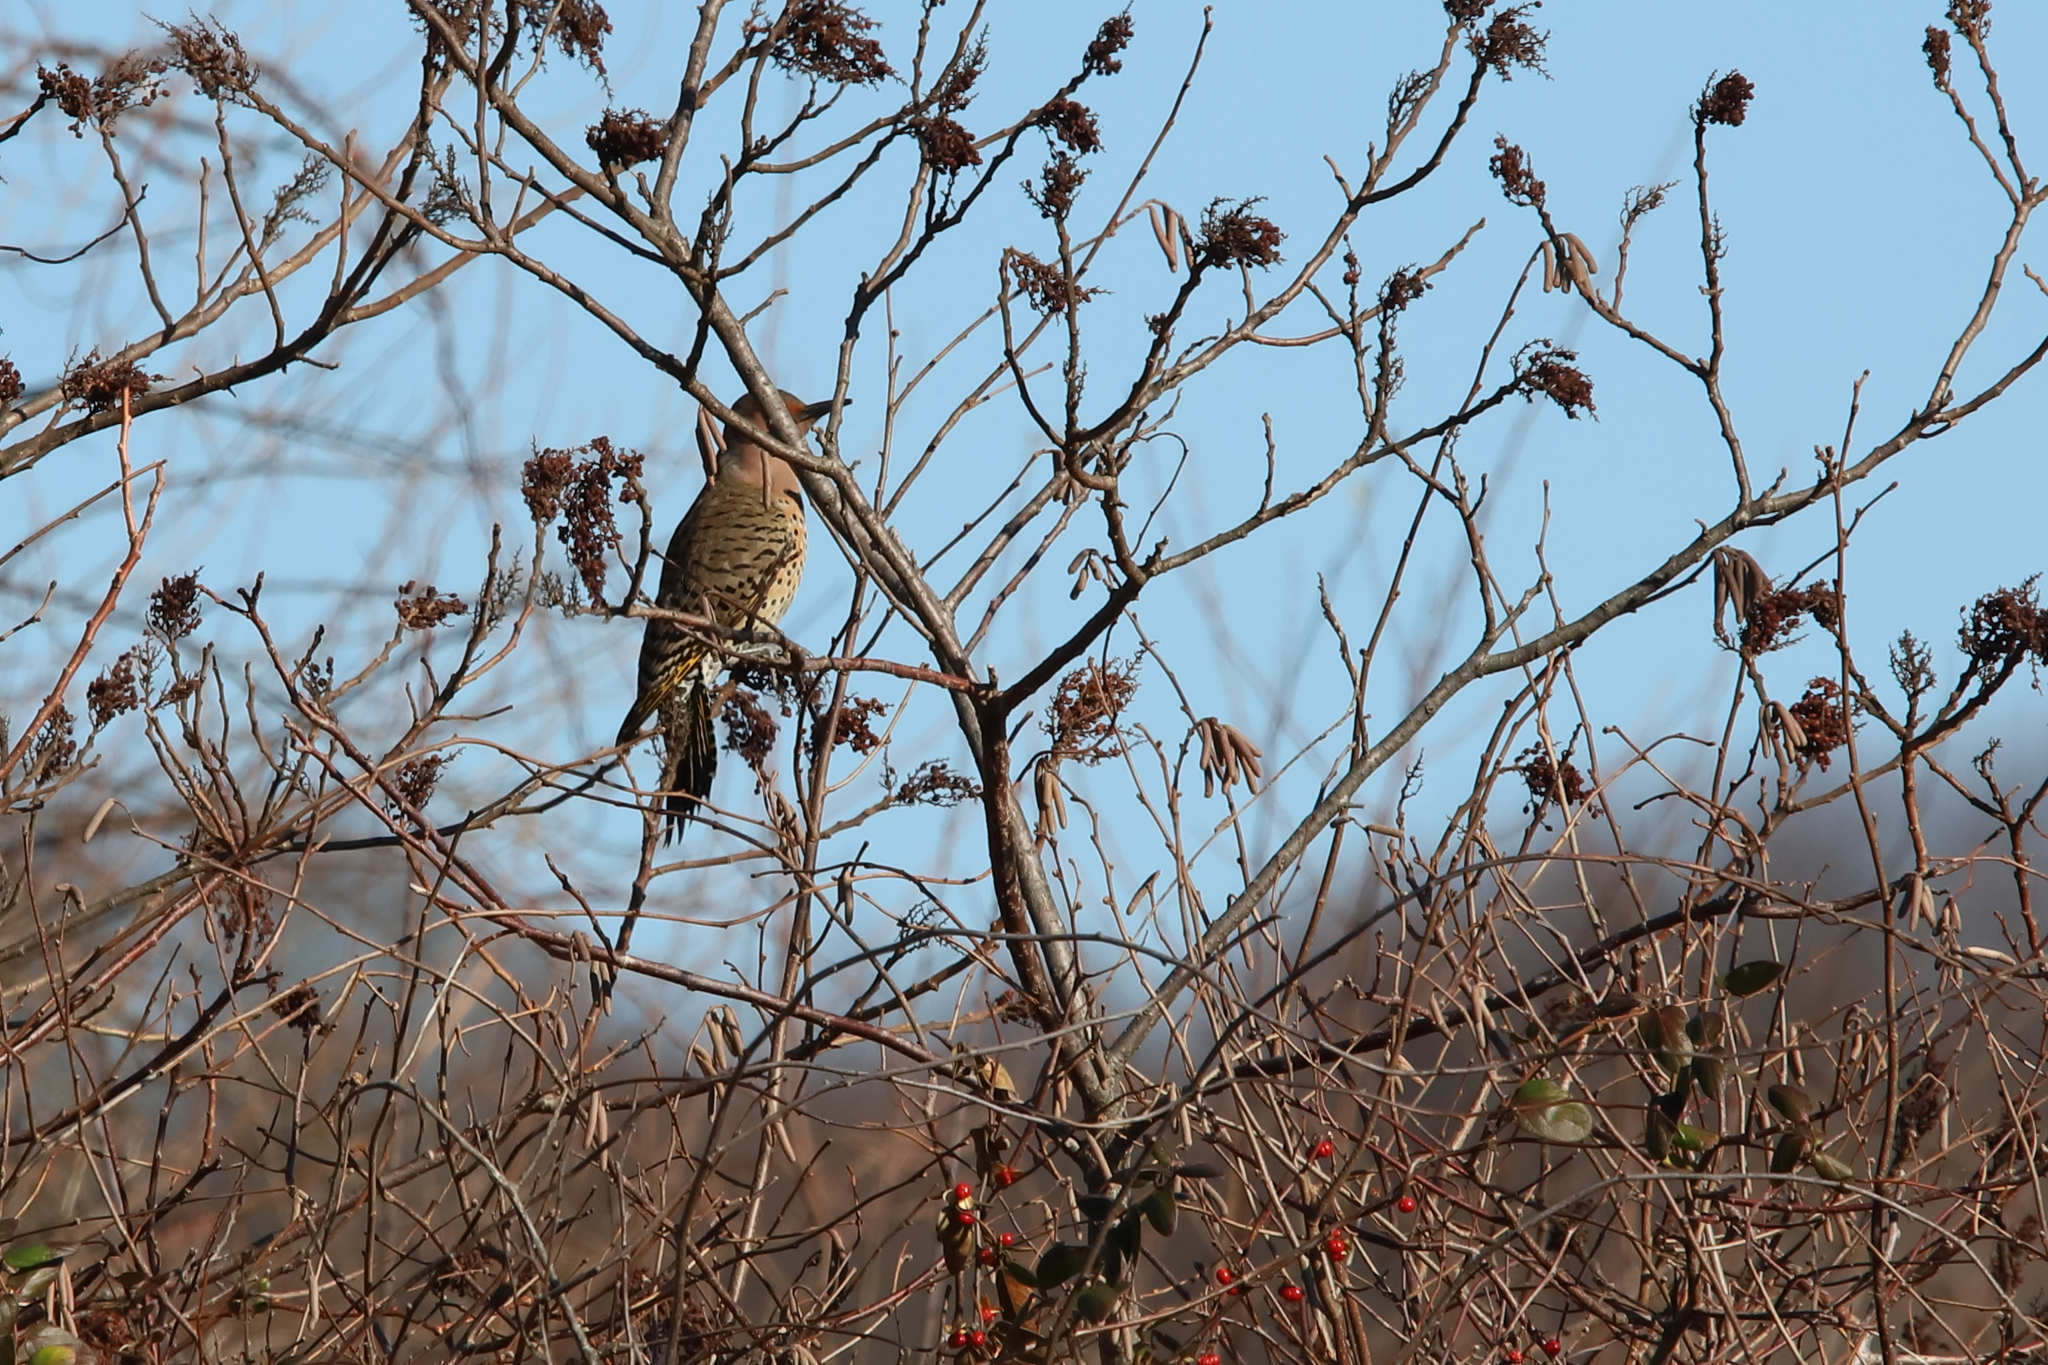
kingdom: Animalia
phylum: Chordata
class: Aves
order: Piciformes
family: Picidae
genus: Colaptes
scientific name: Colaptes auratus
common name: Northern flicker
